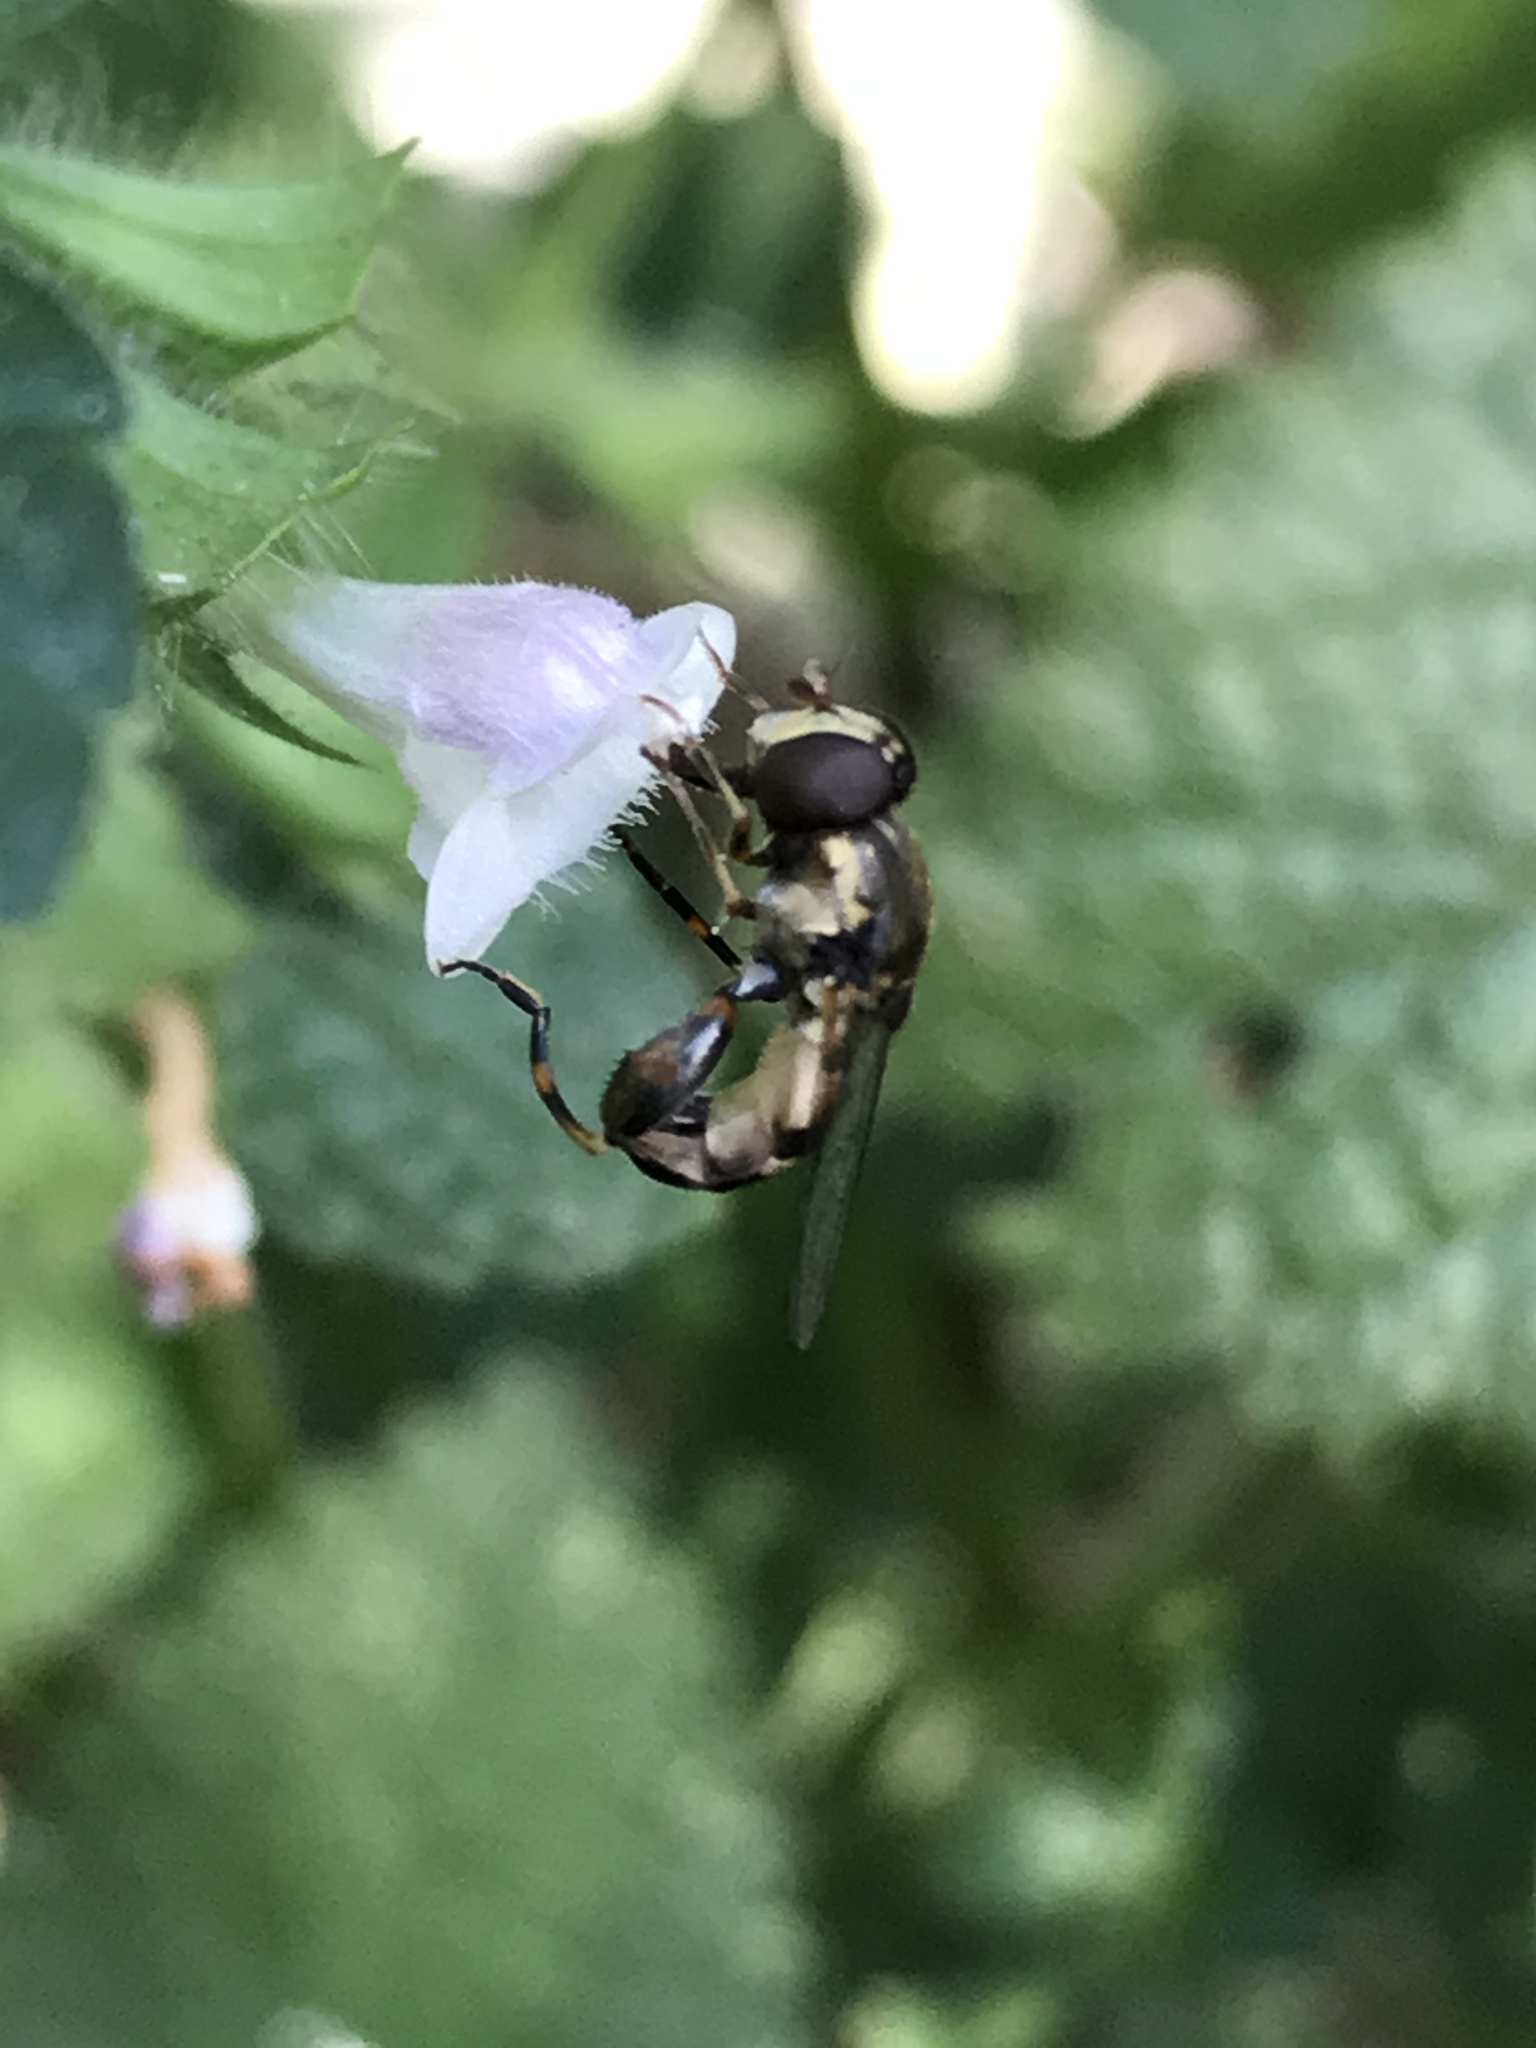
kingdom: Animalia
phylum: Arthropoda
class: Insecta
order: Diptera
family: Syrphidae
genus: Syritta
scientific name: Syritta pipiens
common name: Hover fly
